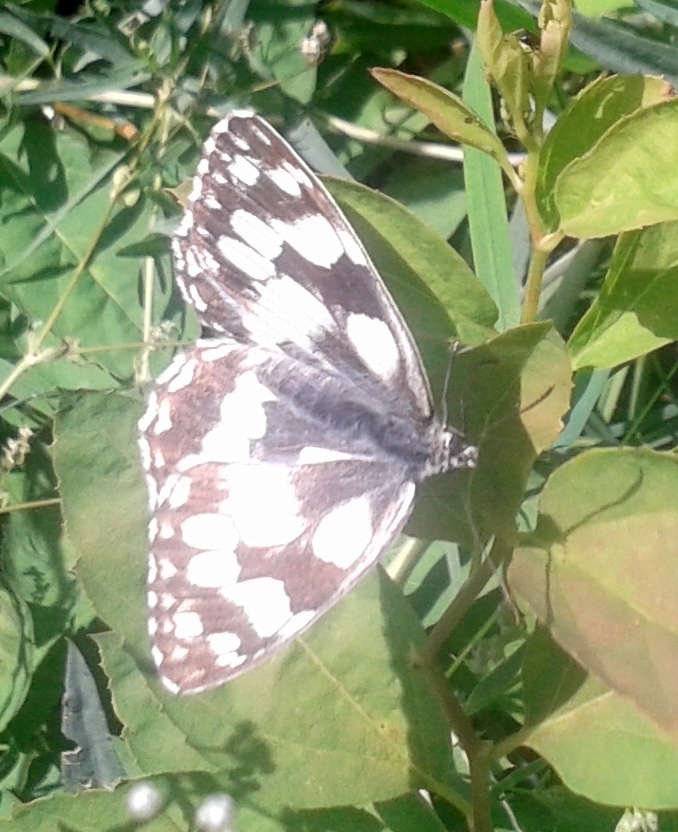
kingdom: Animalia
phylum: Arthropoda
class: Insecta
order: Lepidoptera
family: Nymphalidae
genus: Melanargia
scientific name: Melanargia galathea
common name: Marbled white
